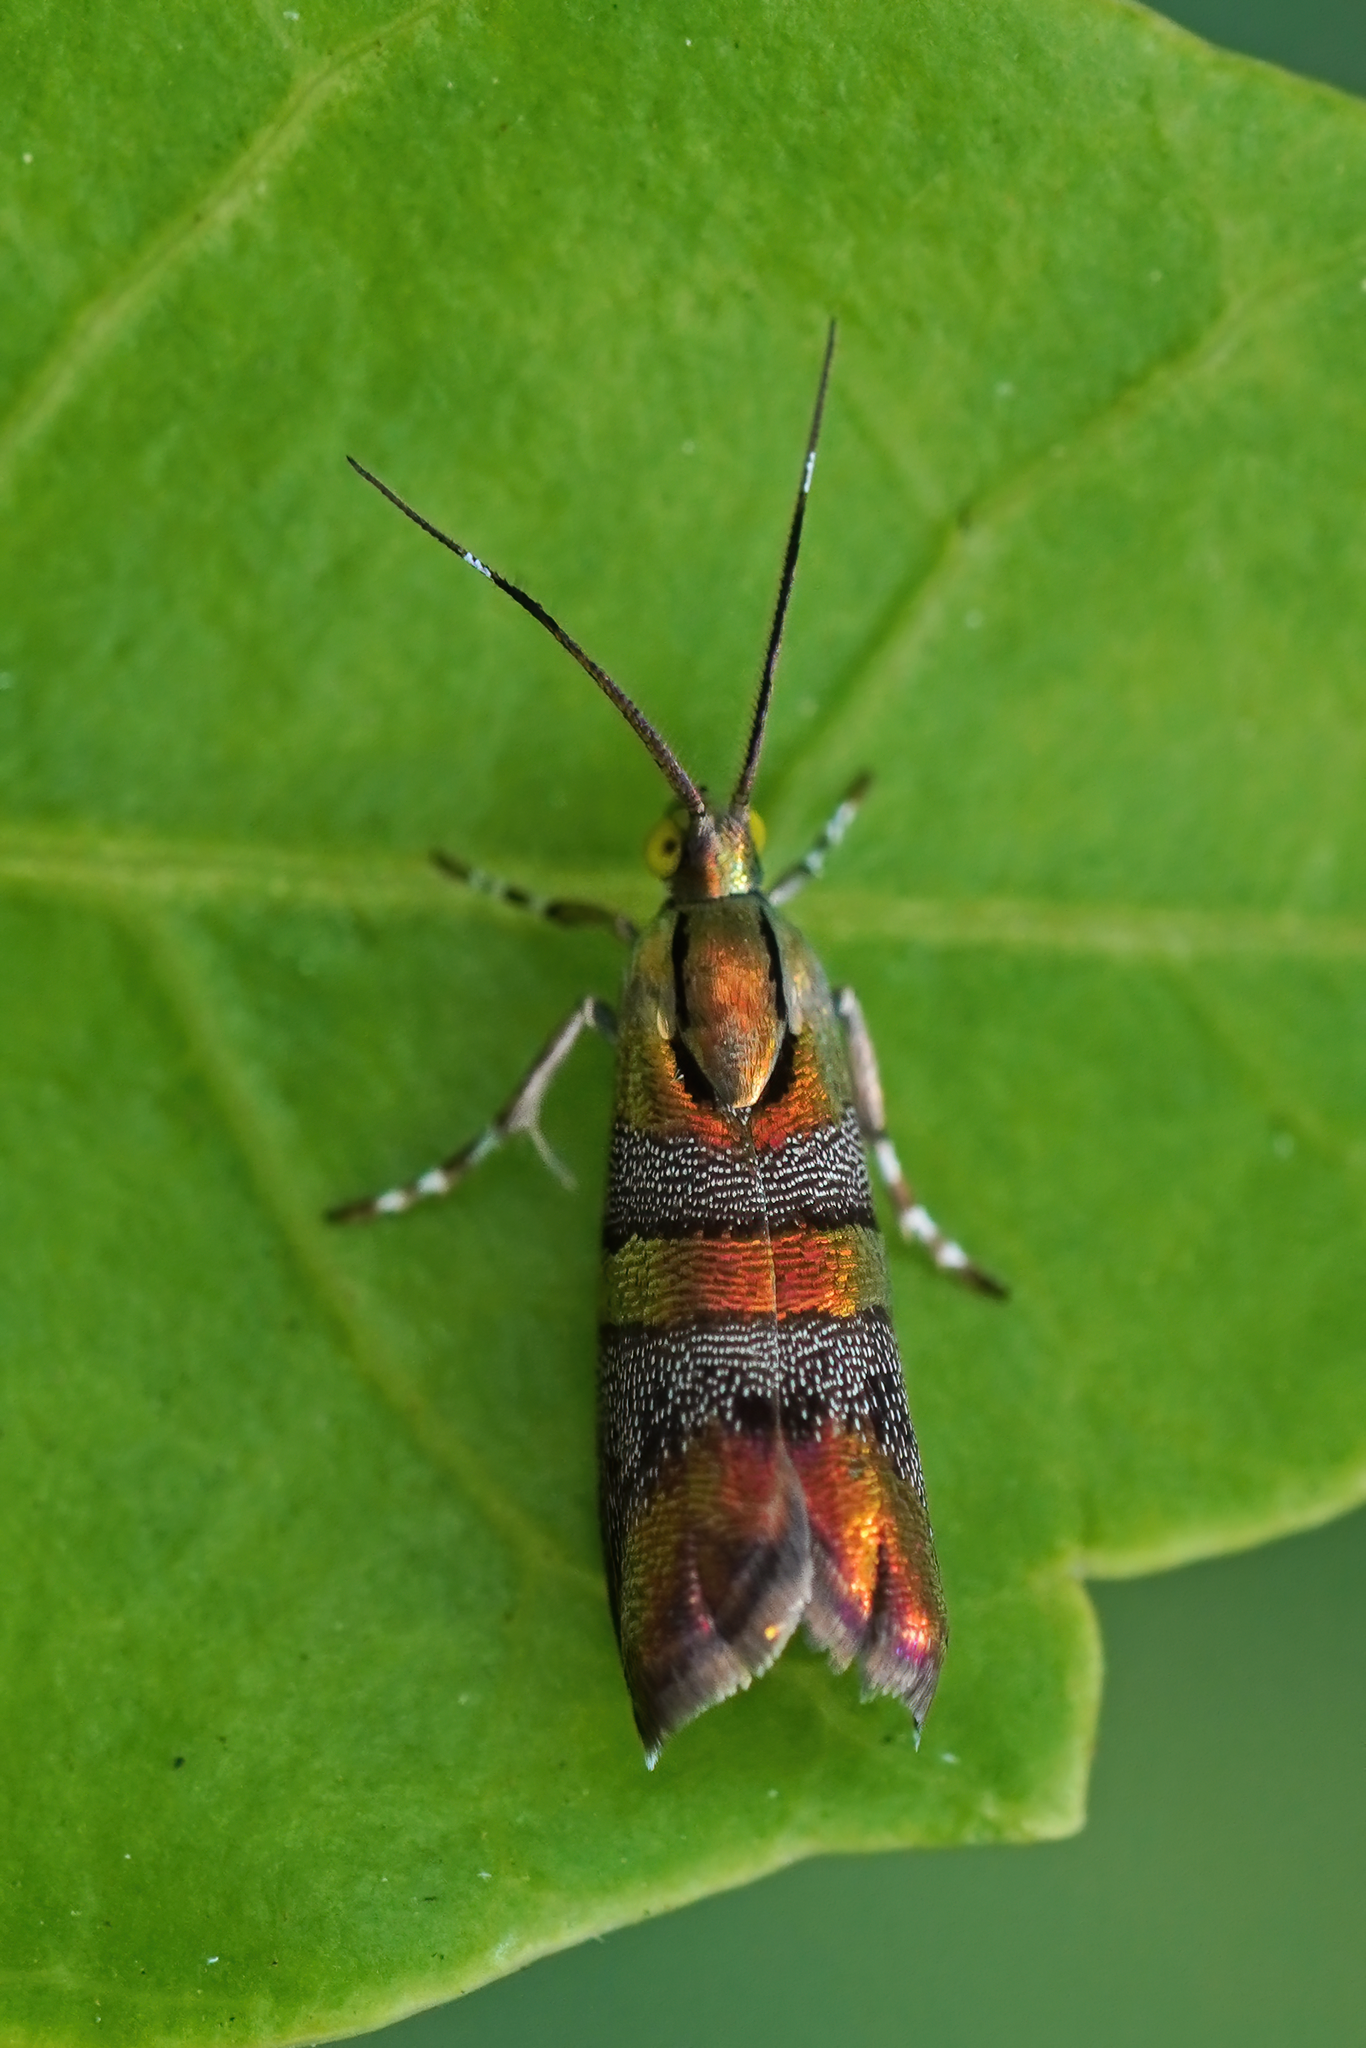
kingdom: Animalia
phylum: Arthropoda
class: Insecta
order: Lepidoptera
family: Choreutidae
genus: Tortyra
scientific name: Tortyra slossonia
